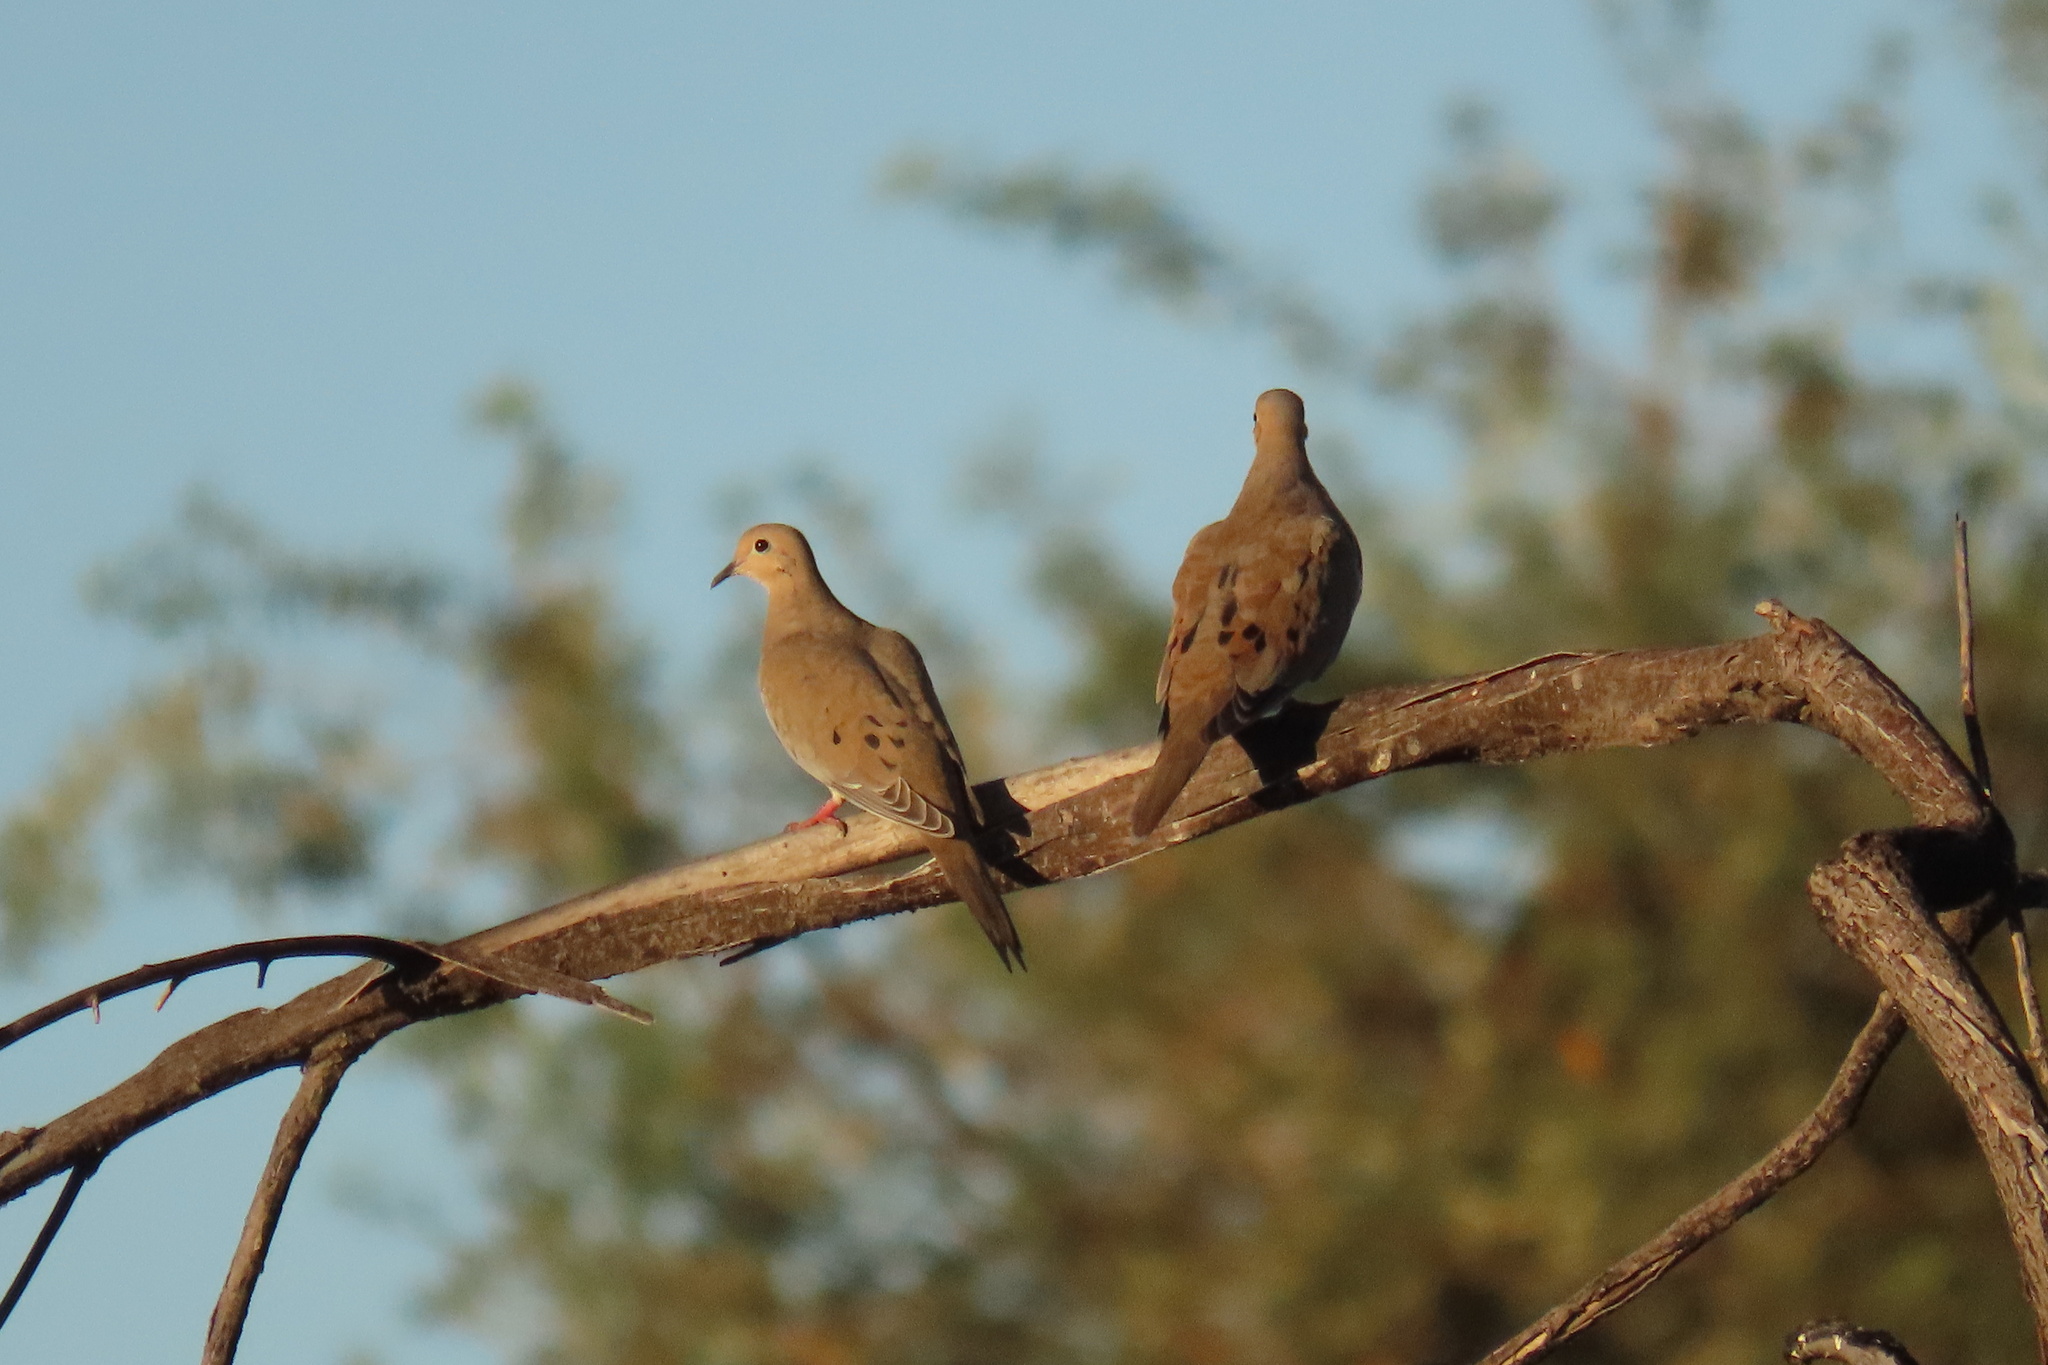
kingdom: Animalia
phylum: Chordata
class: Aves
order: Columbiformes
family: Columbidae
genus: Zenaida
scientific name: Zenaida macroura
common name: Mourning dove
